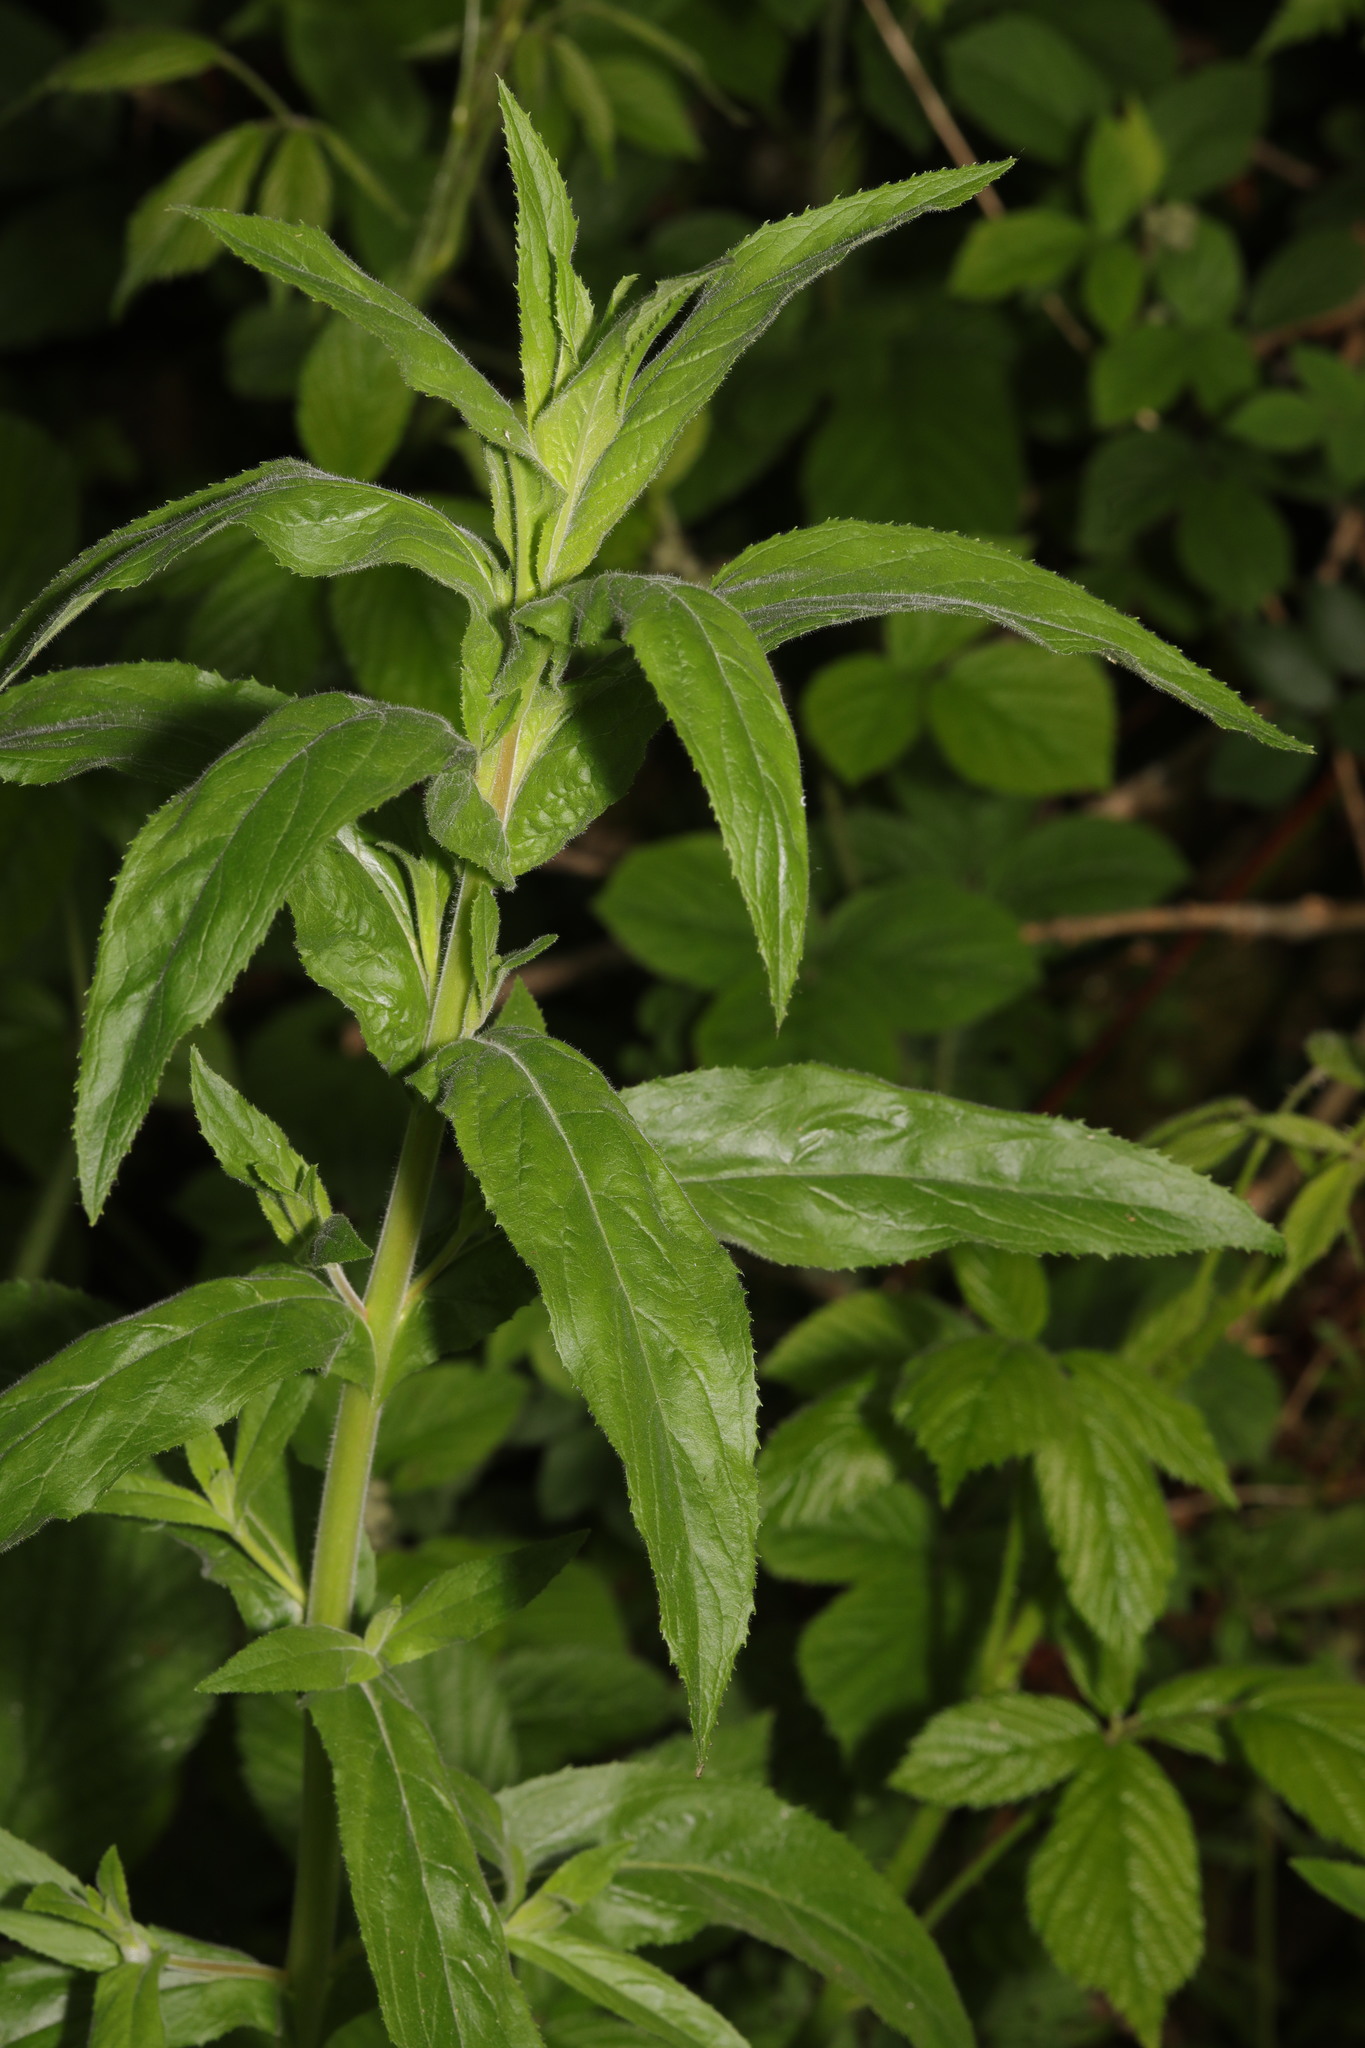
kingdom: Plantae
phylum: Tracheophyta
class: Magnoliopsida
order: Myrtales
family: Onagraceae
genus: Epilobium
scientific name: Epilobium hirsutum
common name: Great willowherb
